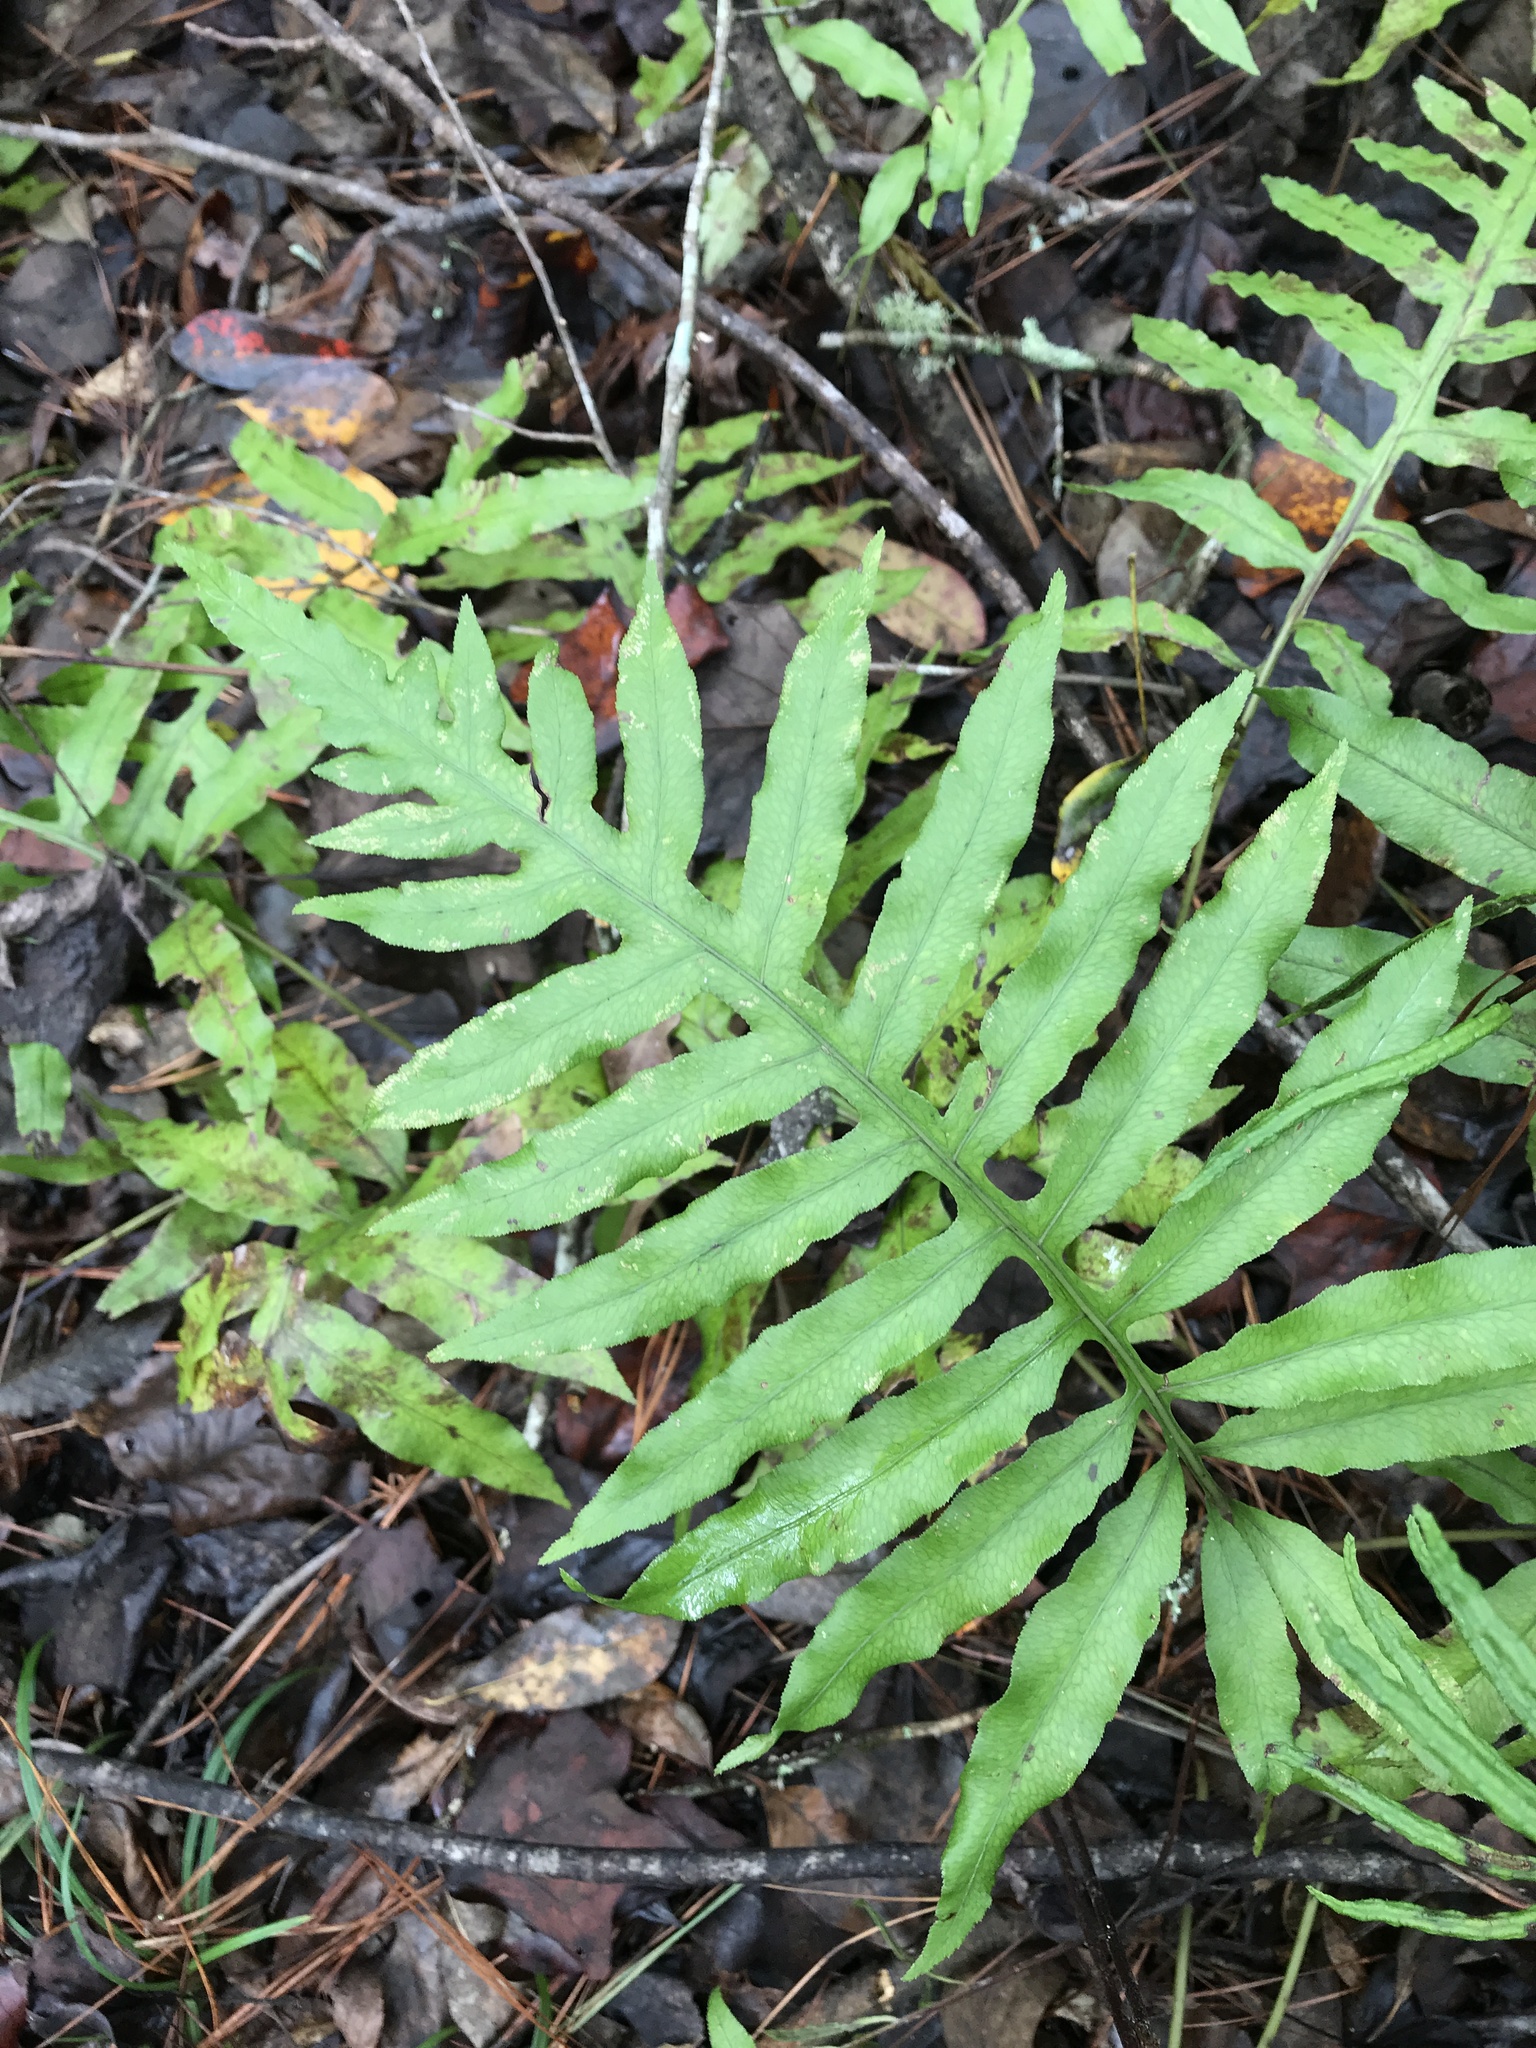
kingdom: Plantae
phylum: Tracheophyta
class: Polypodiopsida
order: Polypodiales
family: Blechnaceae
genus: Lorinseria
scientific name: Lorinseria areolata
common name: Dwarf chain fern
